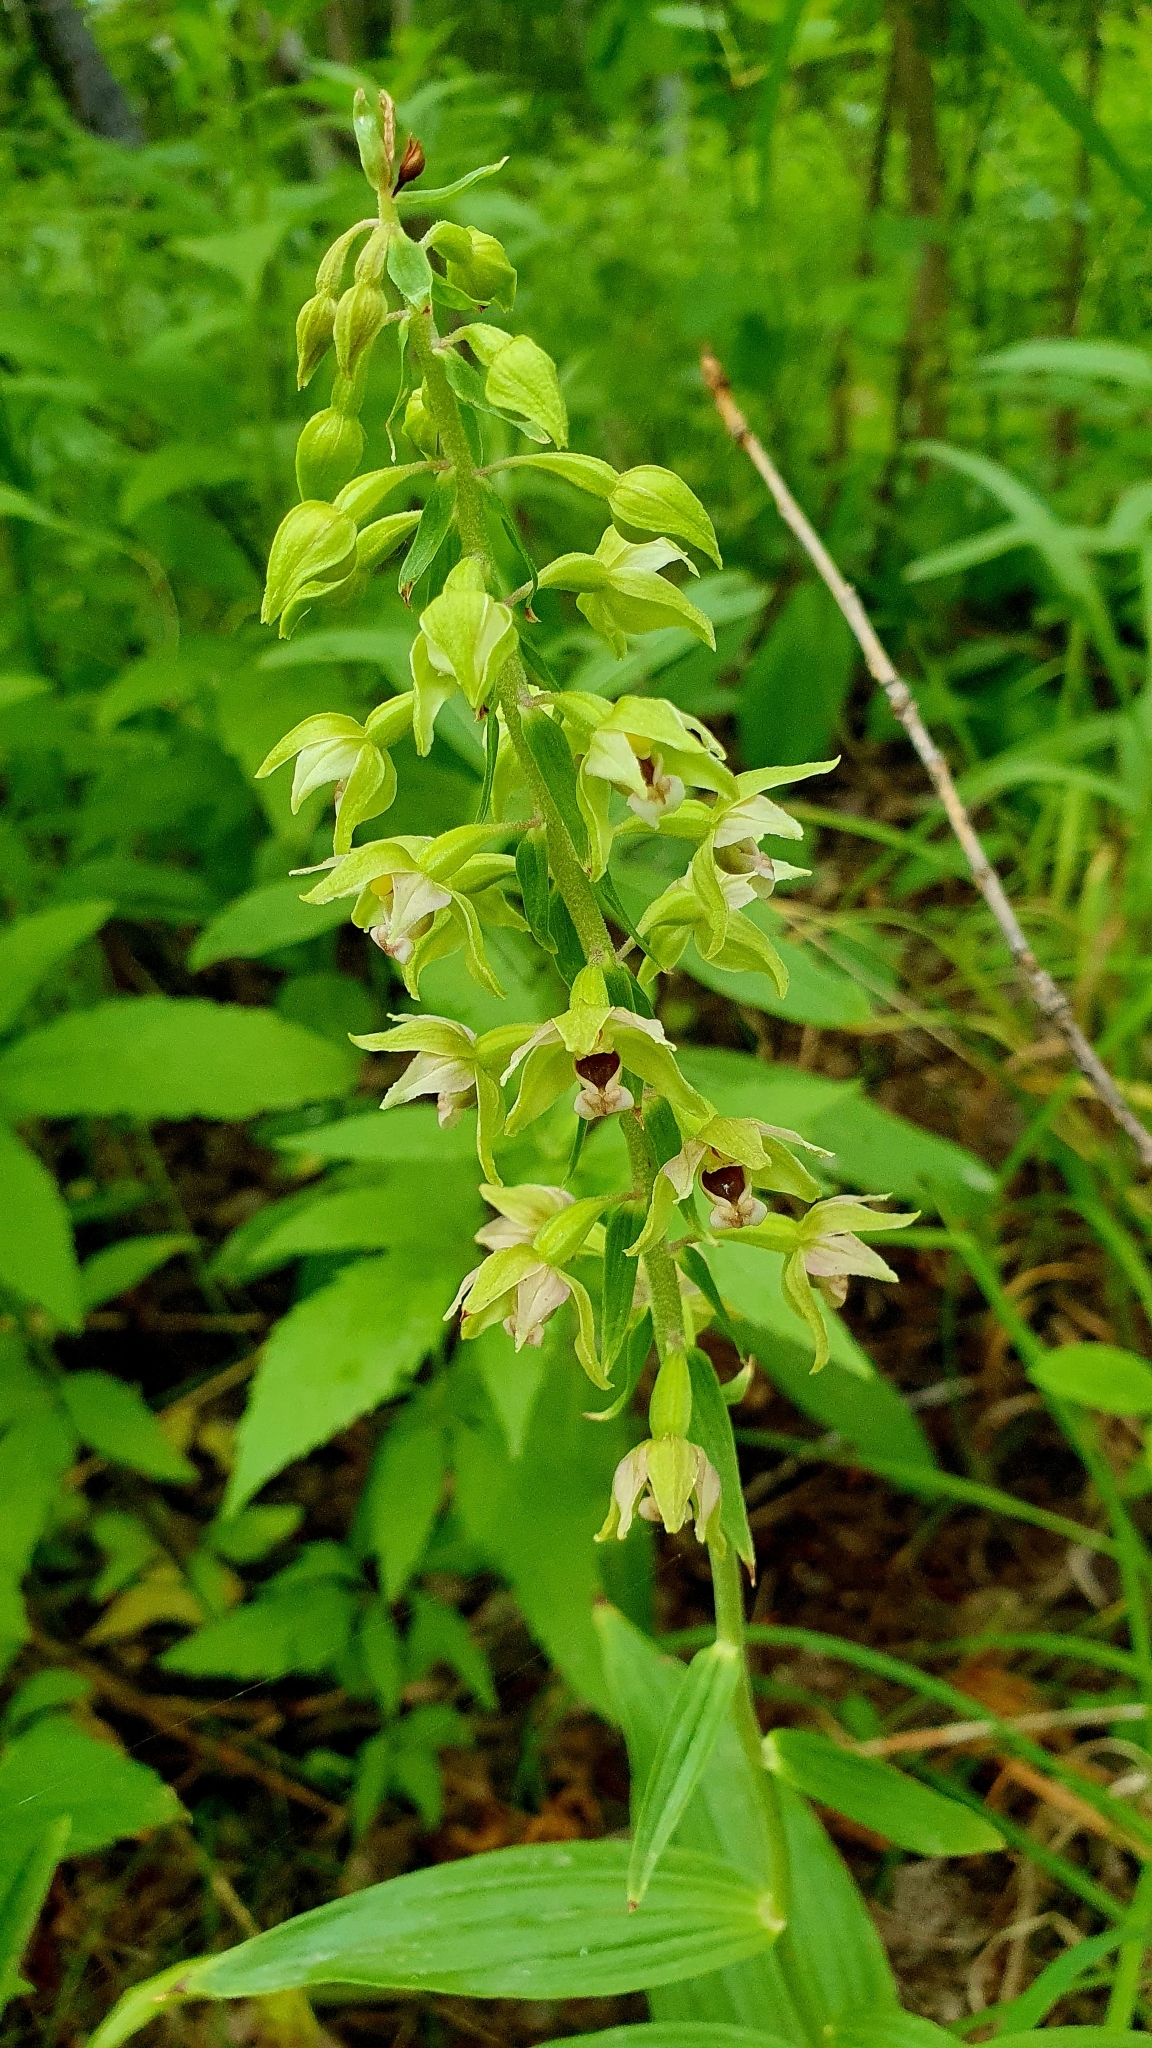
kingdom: Plantae
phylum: Tracheophyta
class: Liliopsida
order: Asparagales
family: Orchidaceae
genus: Epipactis
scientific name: Epipactis helleborine
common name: Broad-leaved helleborine
